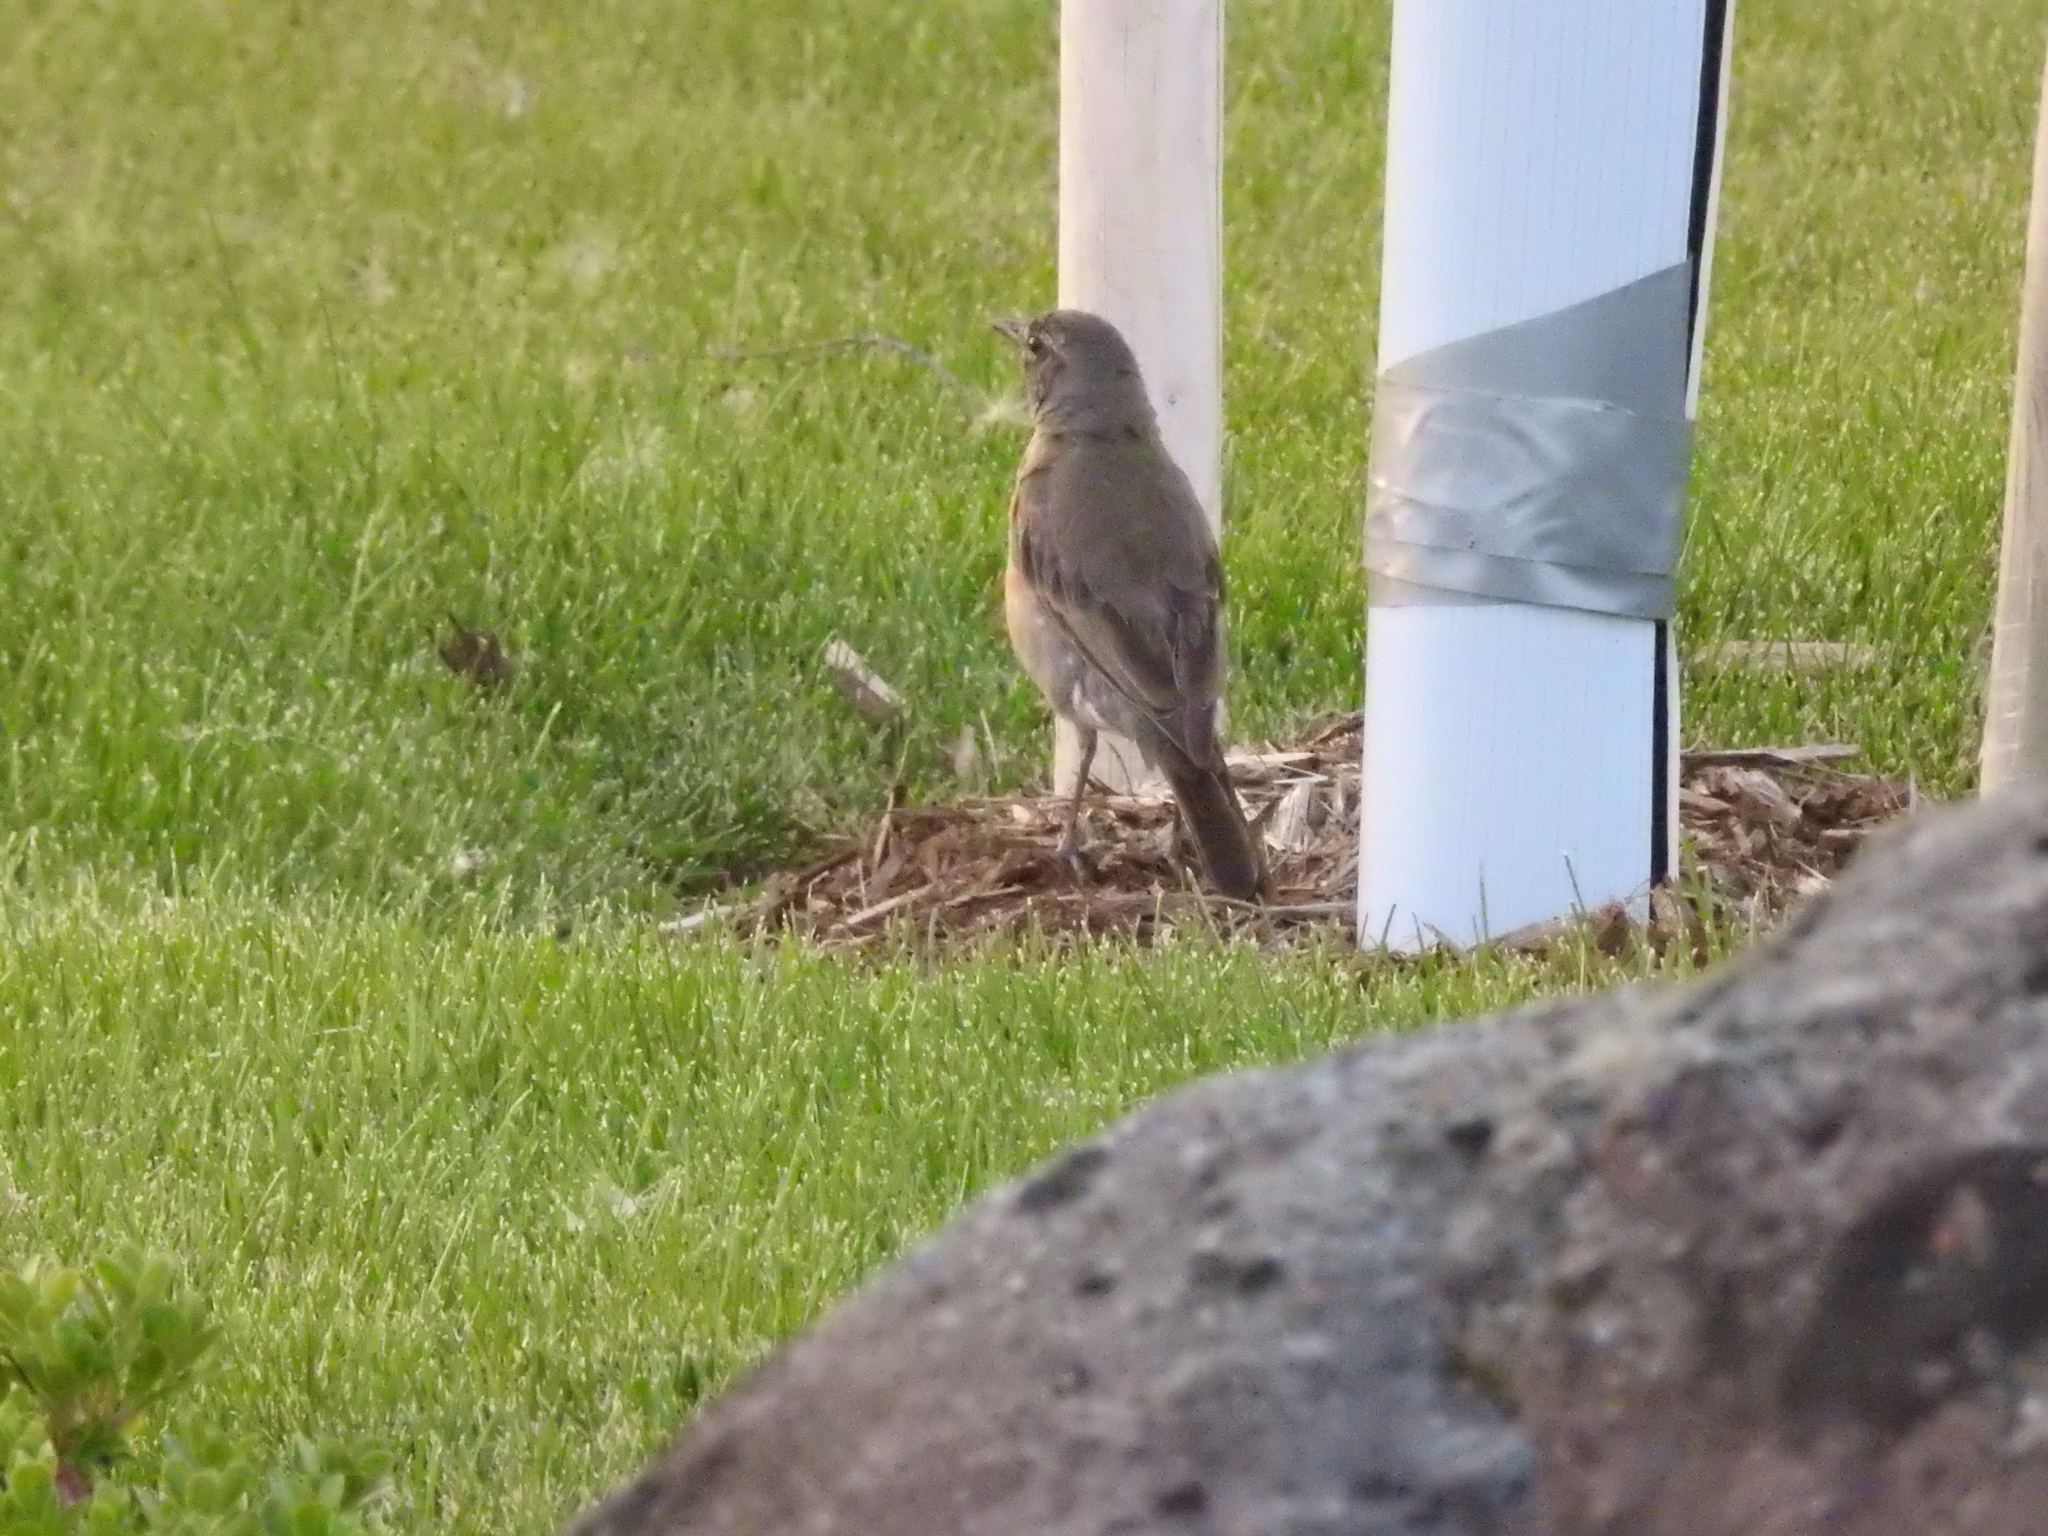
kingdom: Animalia
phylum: Chordata
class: Aves
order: Passeriformes
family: Turdidae
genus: Turdus
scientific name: Turdus migratorius
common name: American robin
